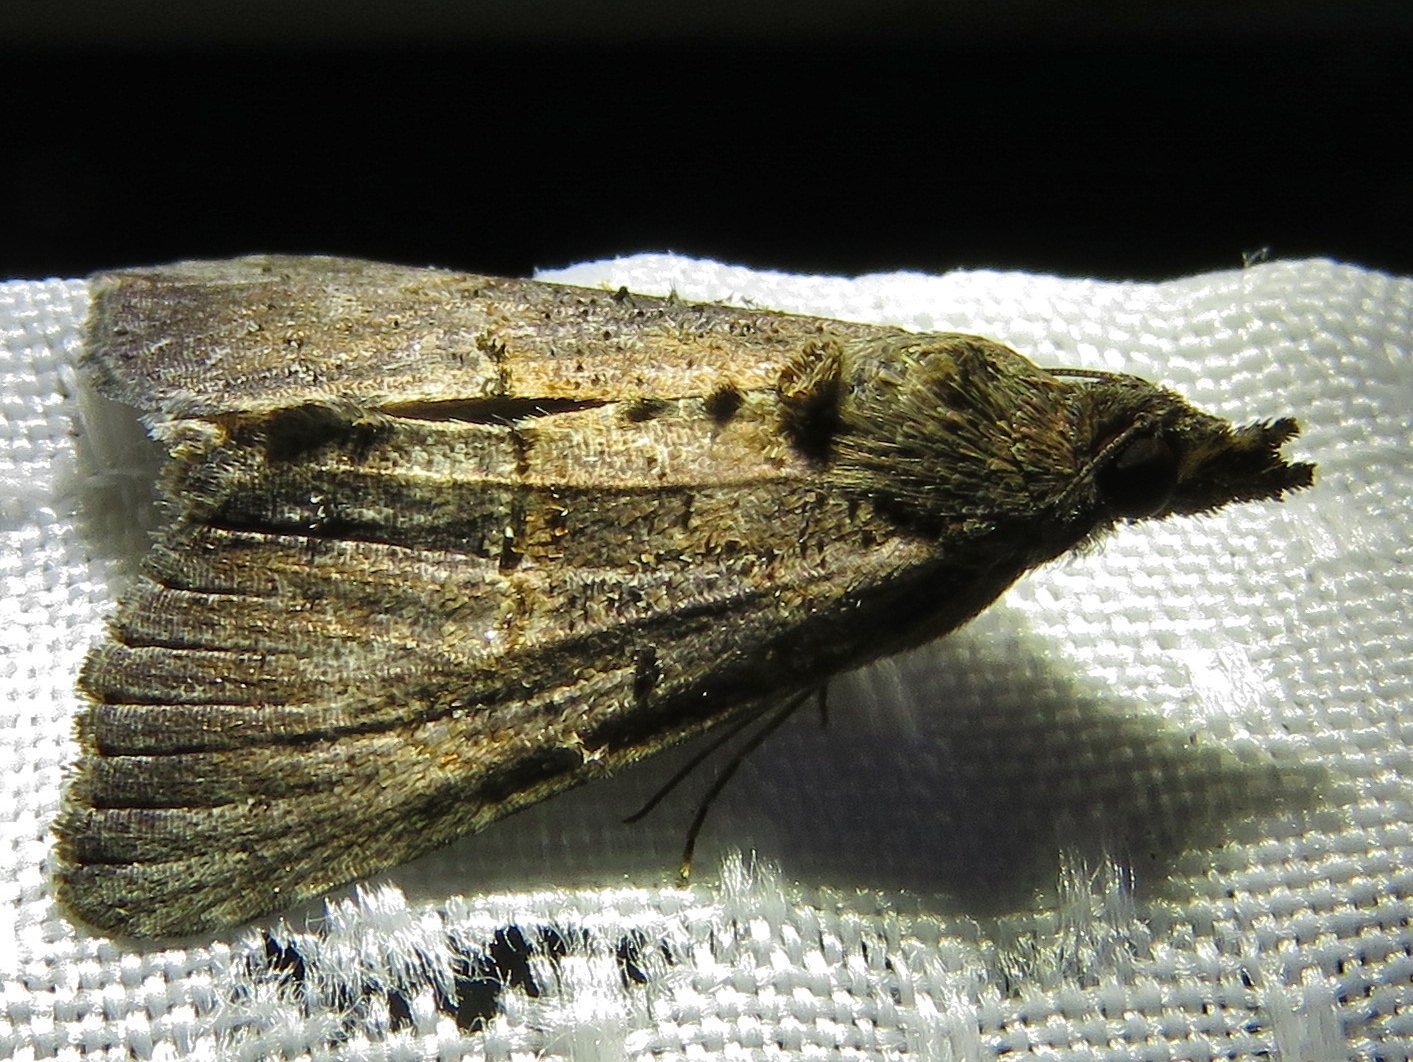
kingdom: Animalia
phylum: Arthropoda
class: Insecta
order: Lepidoptera
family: Erebidae
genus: Hypena
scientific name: Hypena scabra
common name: Green cloverworm
